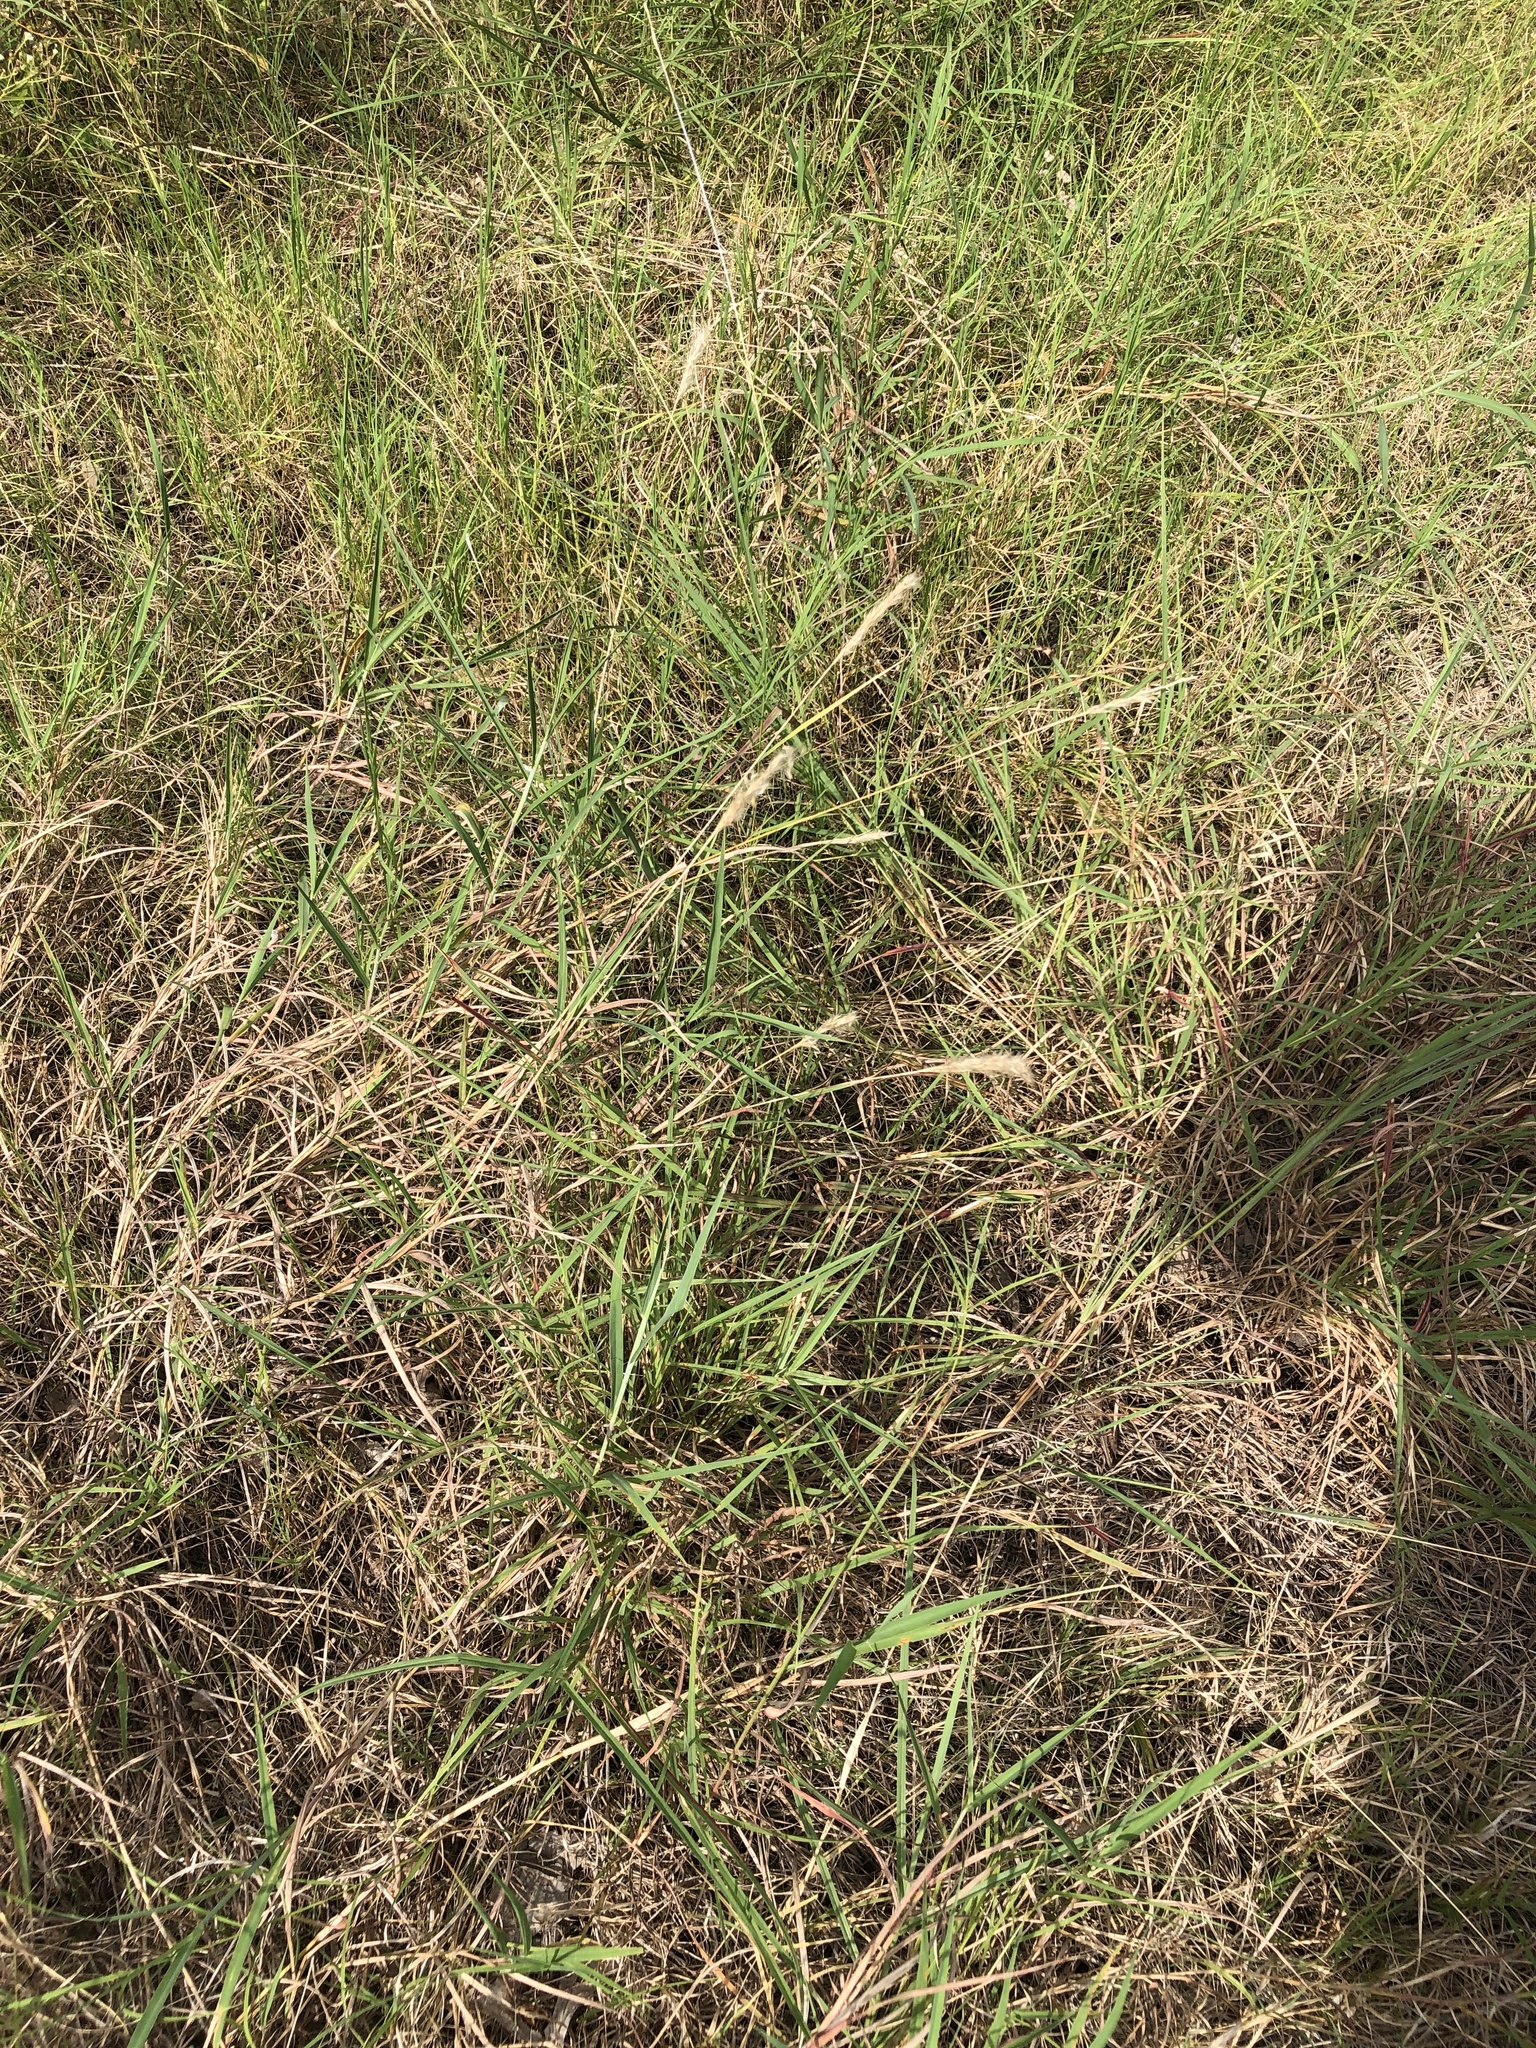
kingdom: Plantae
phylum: Tracheophyta
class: Liliopsida
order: Poales
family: Poaceae
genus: Bothriochloa
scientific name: Bothriochloa torreyana
